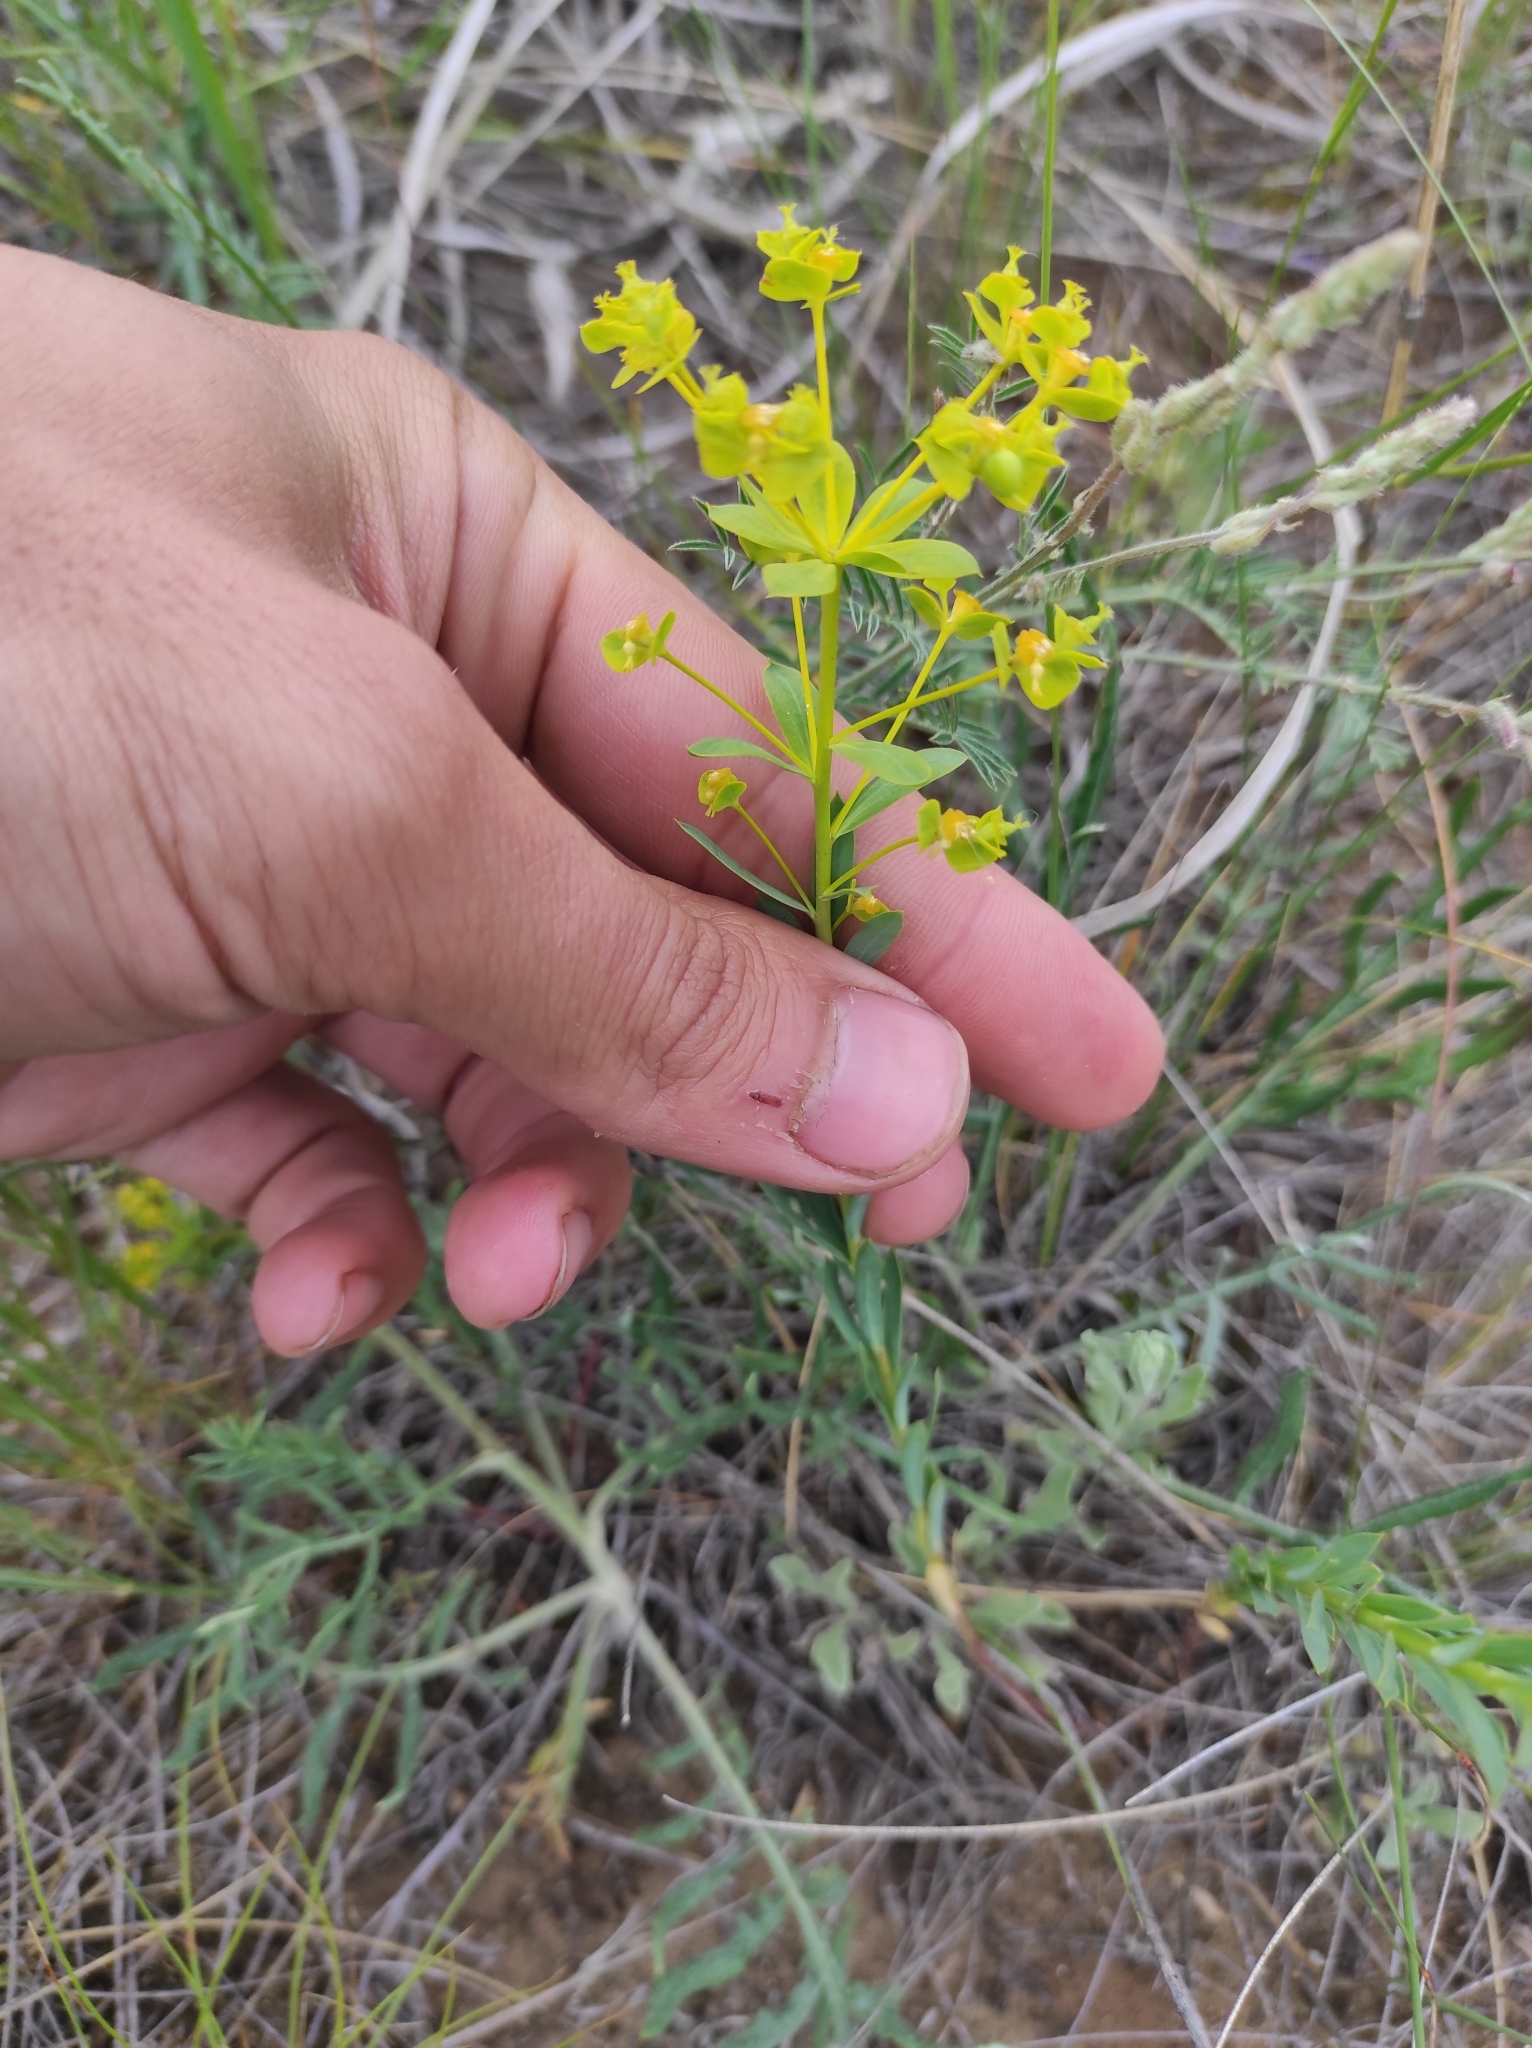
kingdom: Plantae
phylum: Tracheophyta
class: Magnoliopsida
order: Malpighiales
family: Euphorbiaceae
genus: Euphorbia
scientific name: Euphorbia seguieriana
